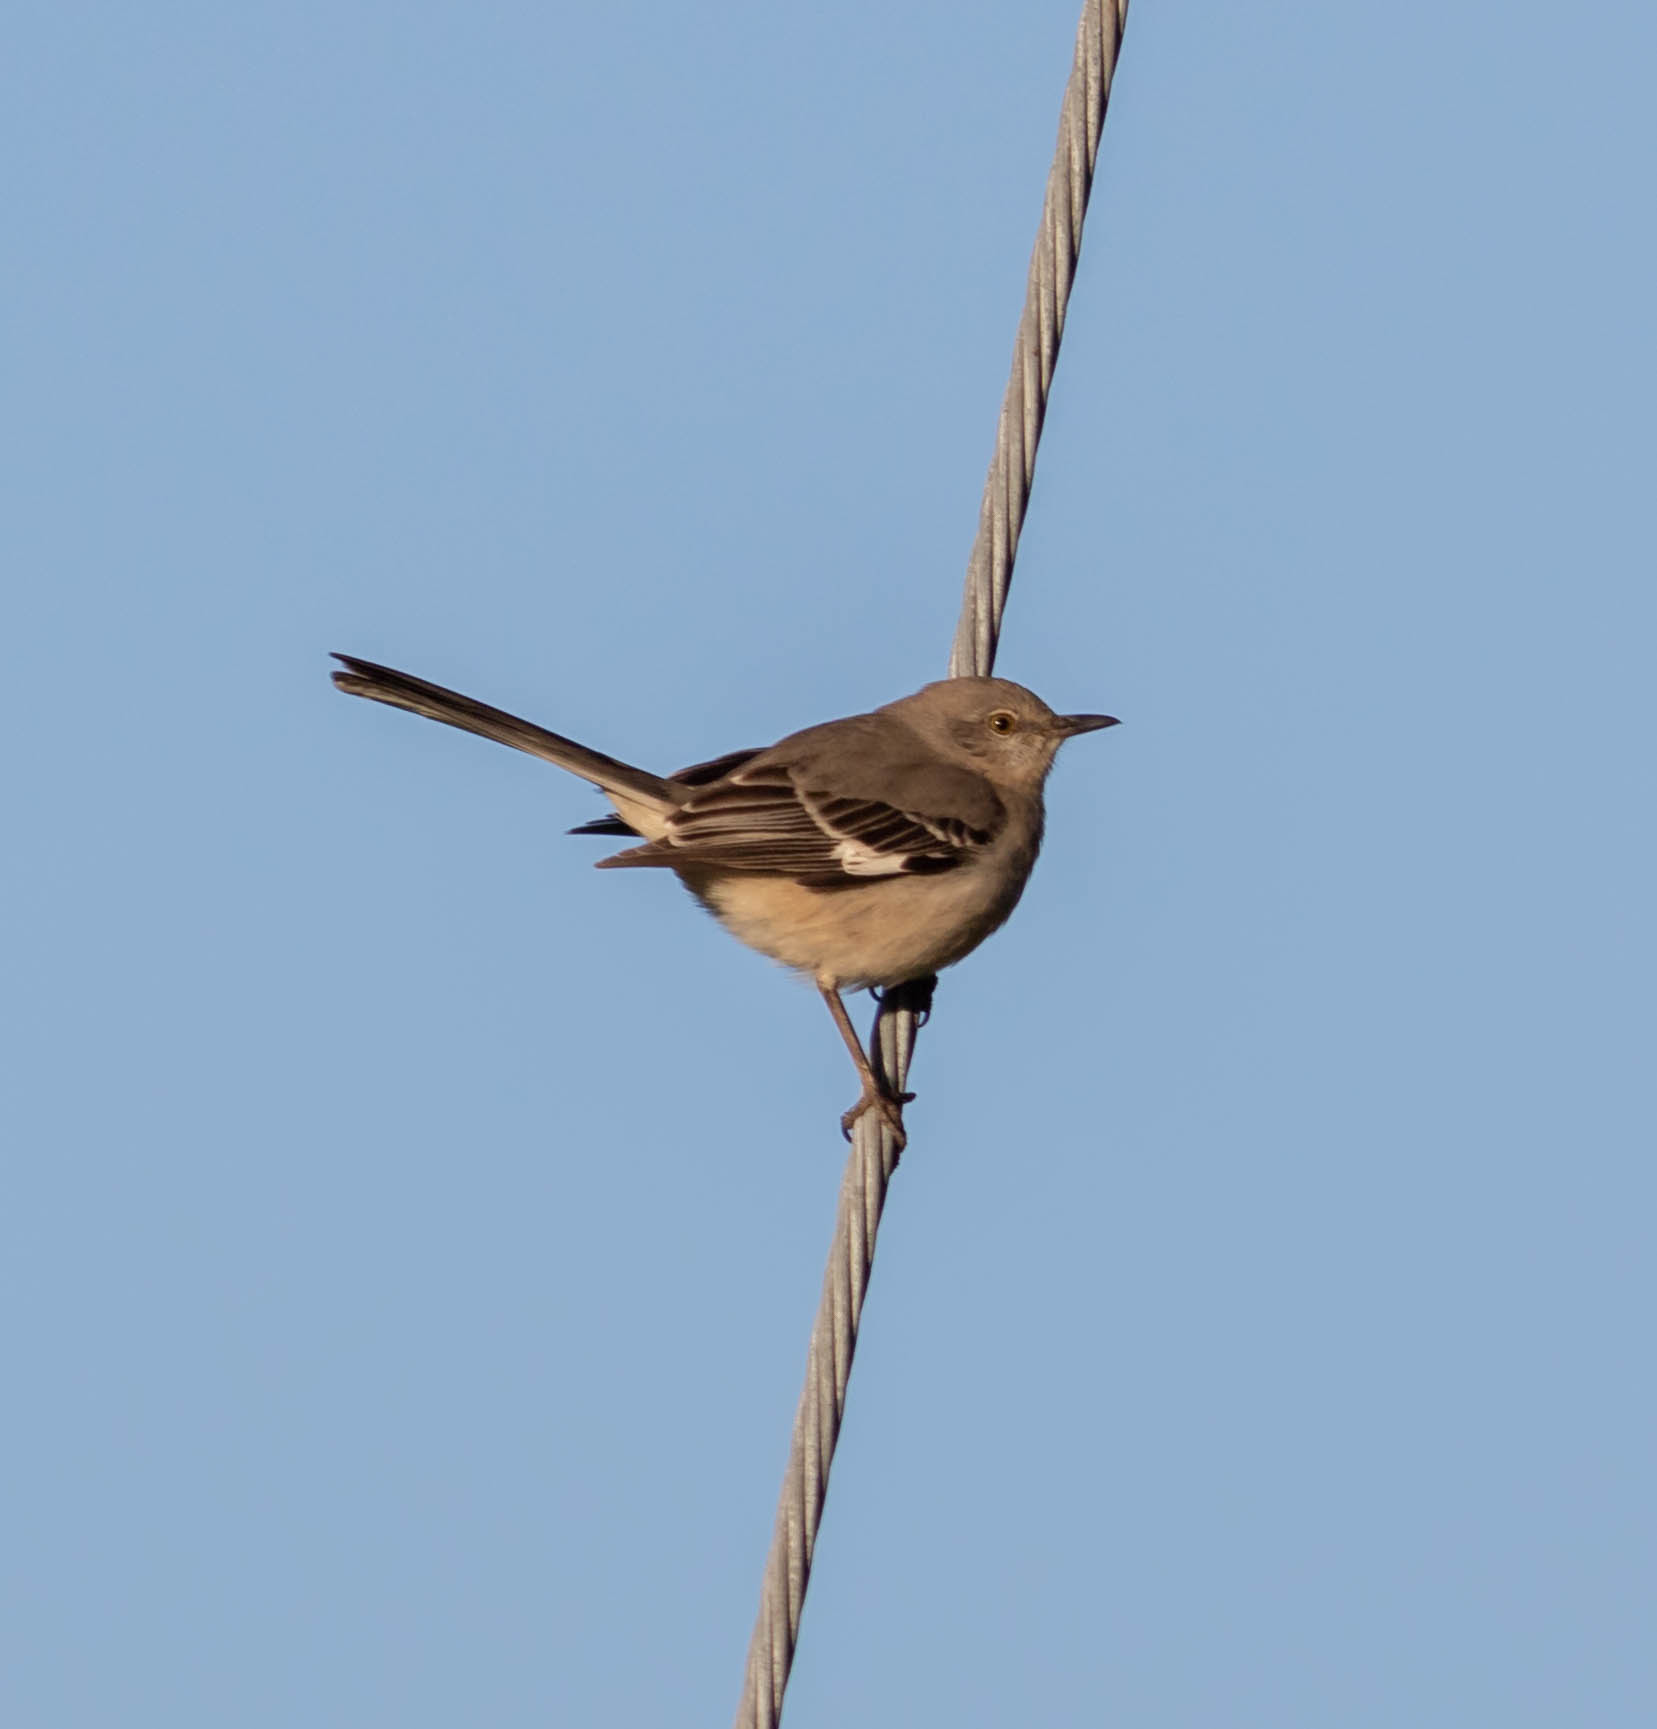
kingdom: Animalia
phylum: Chordata
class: Aves
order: Passeriformes
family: Mimidae
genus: Mimus
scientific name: Mimus polyglottos
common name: Northern mockingbird
